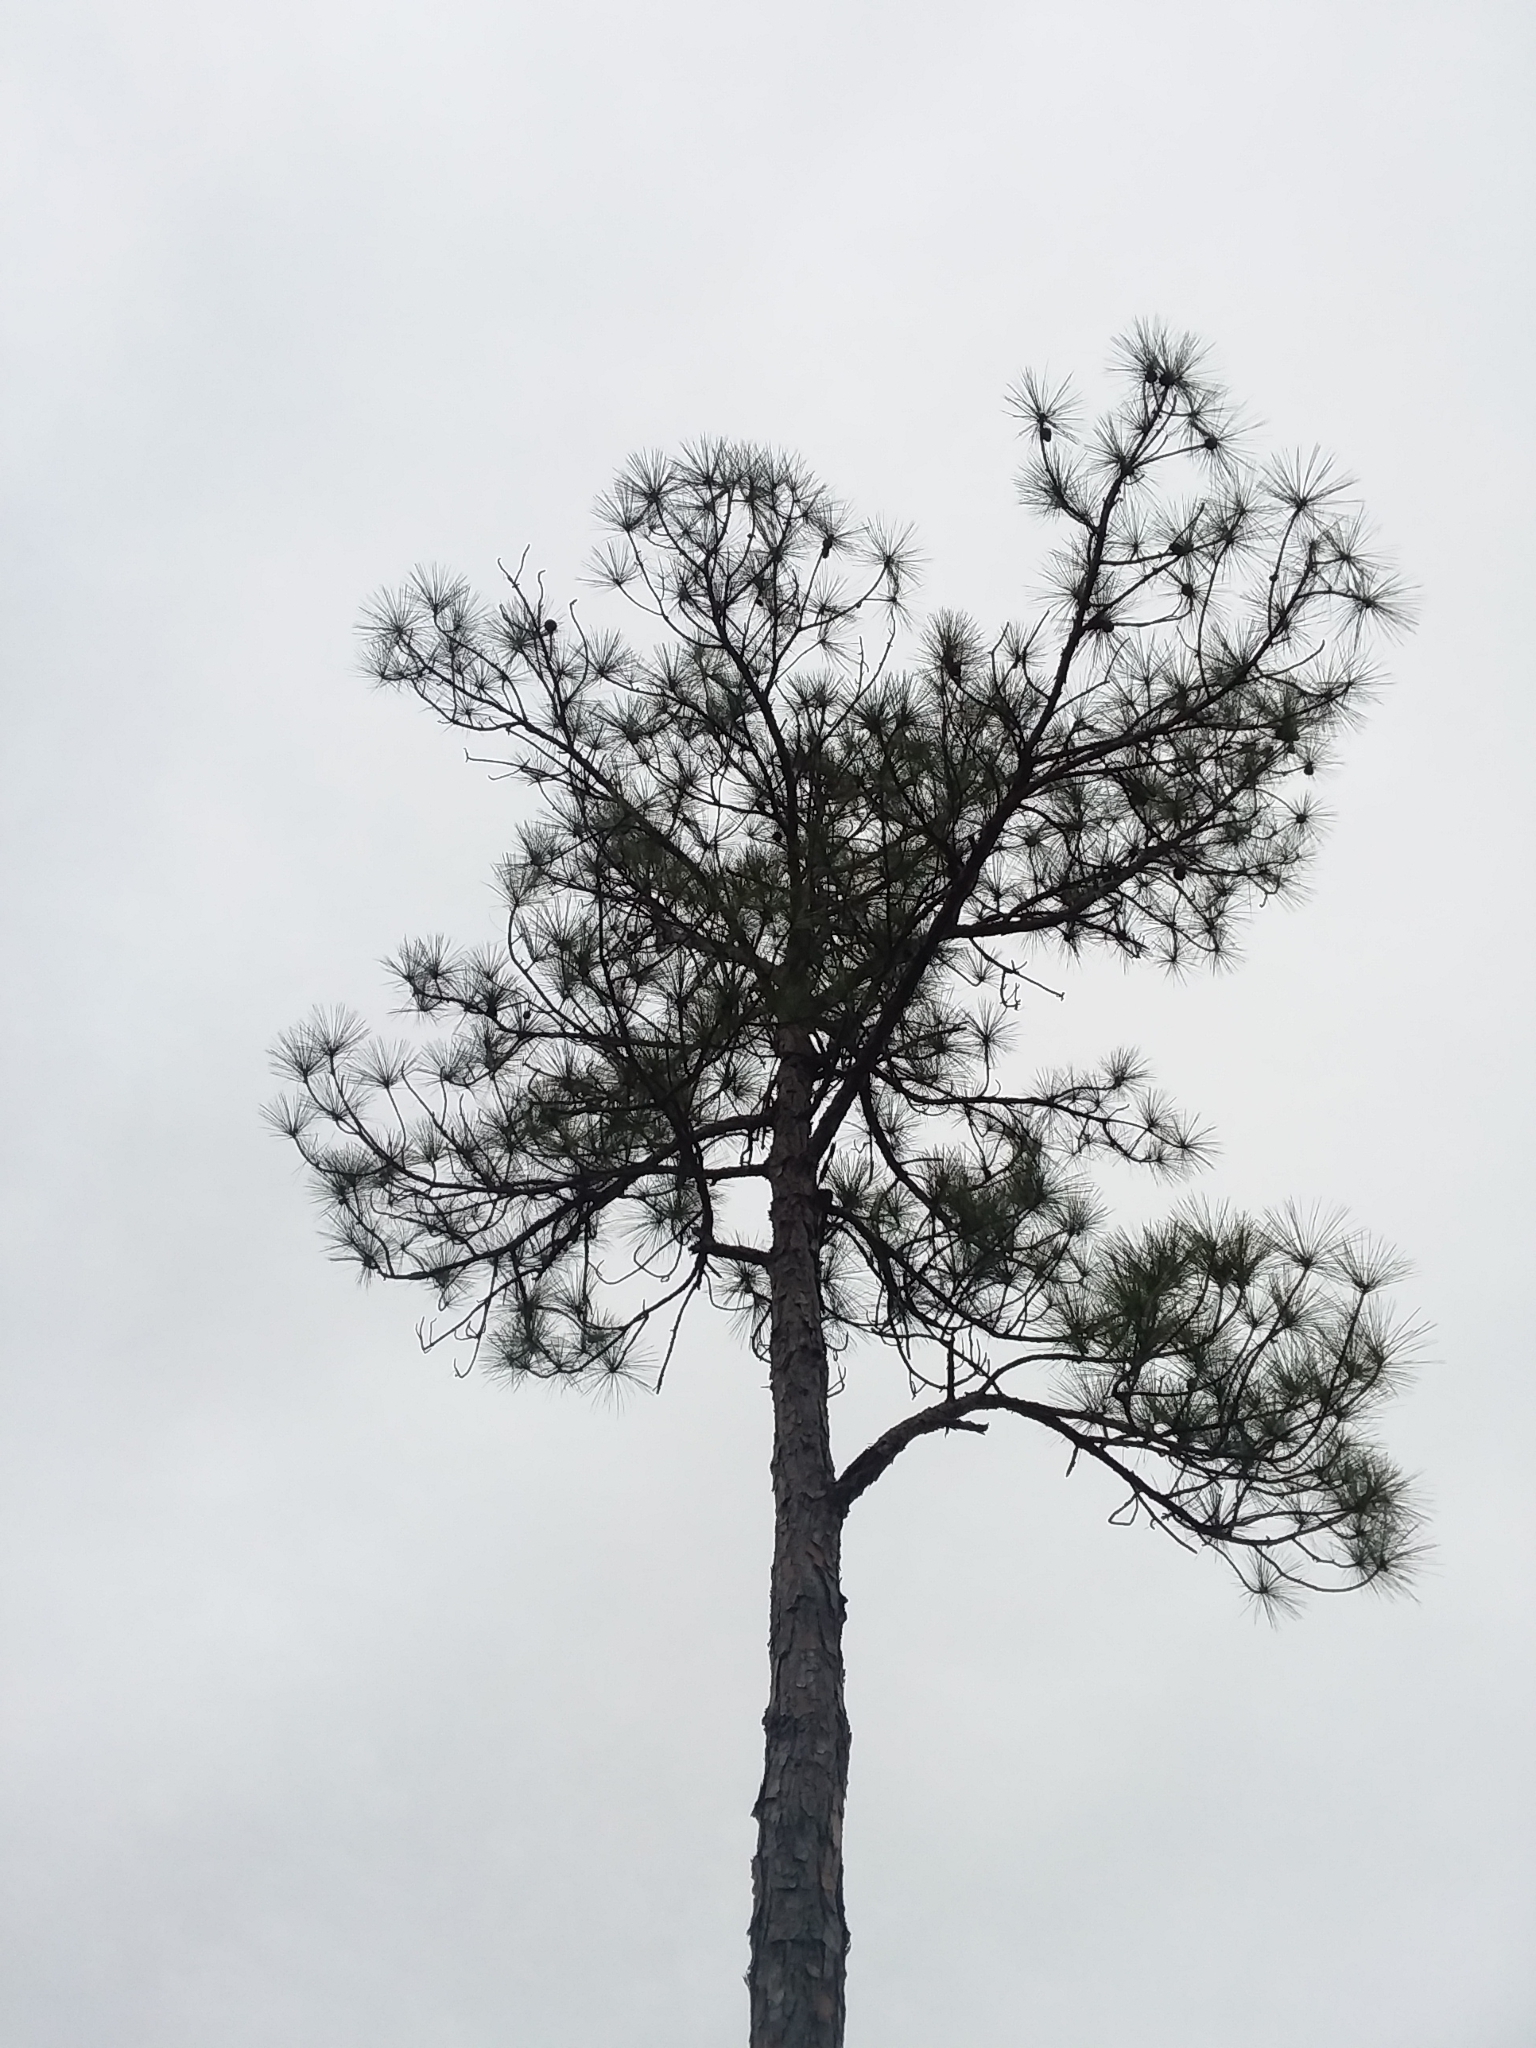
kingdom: Plantae
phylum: Tracheophyta
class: Pinopsida
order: Pinales
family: Pinaceae
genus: Pinus
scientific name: Pinus elliottii
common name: Slash pine
